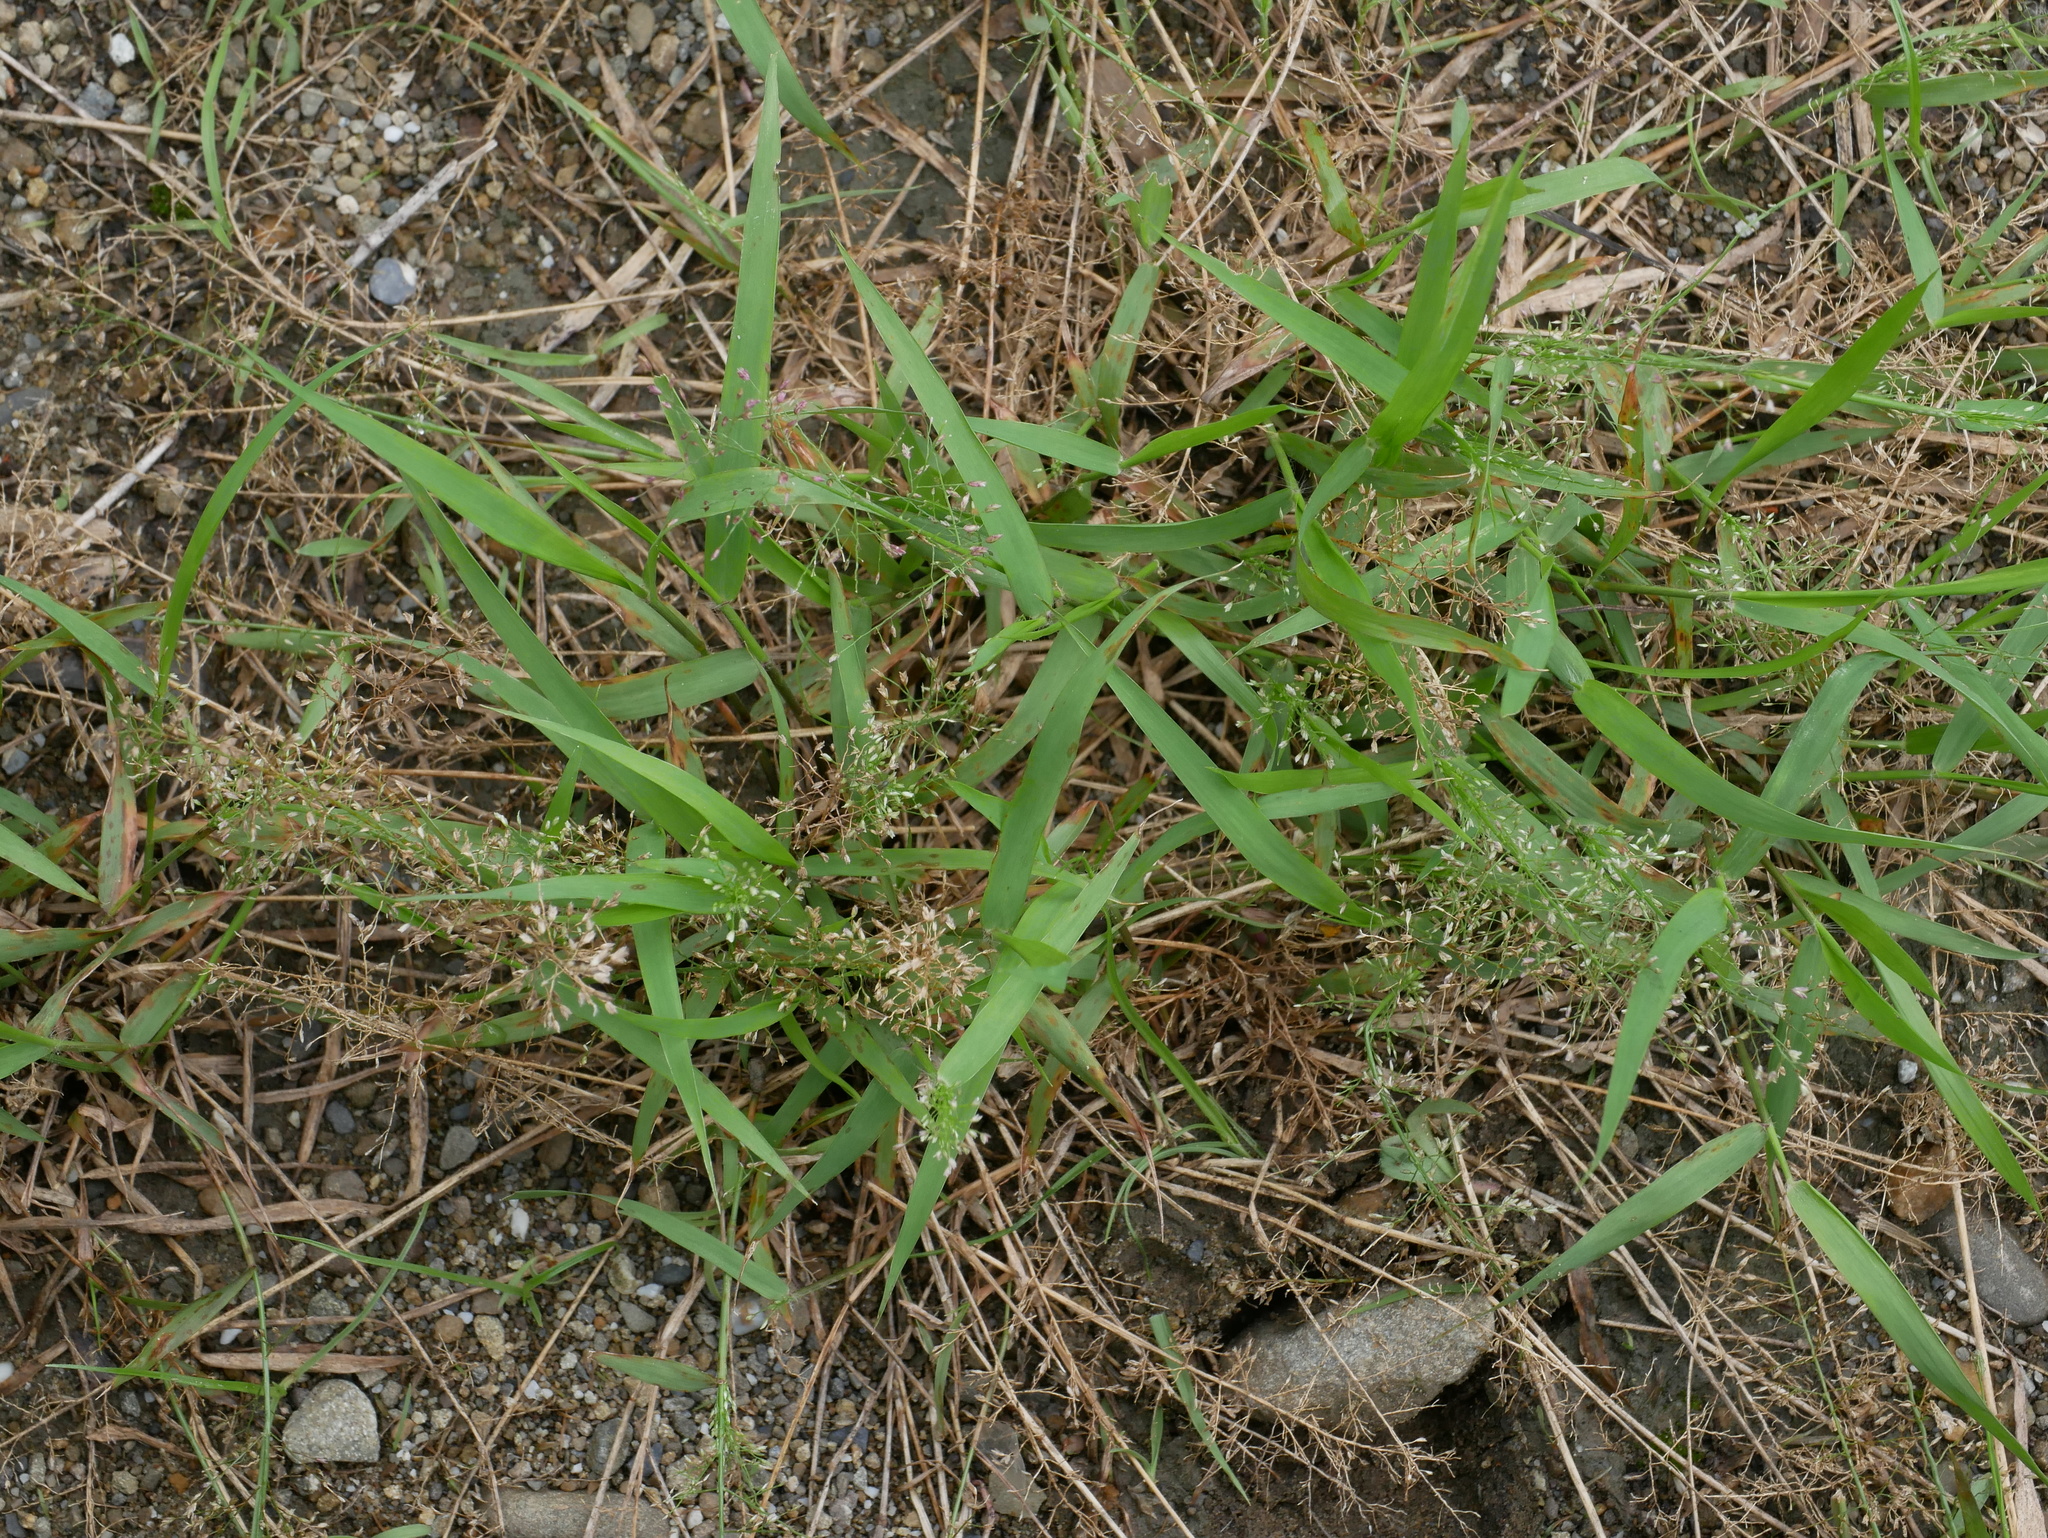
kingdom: Plantae
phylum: Tracheophyta
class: Liliopsida
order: Poales
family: Poaceae
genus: Eragrostis
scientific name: Eragrostis tenella
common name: Japanese lovegrass
